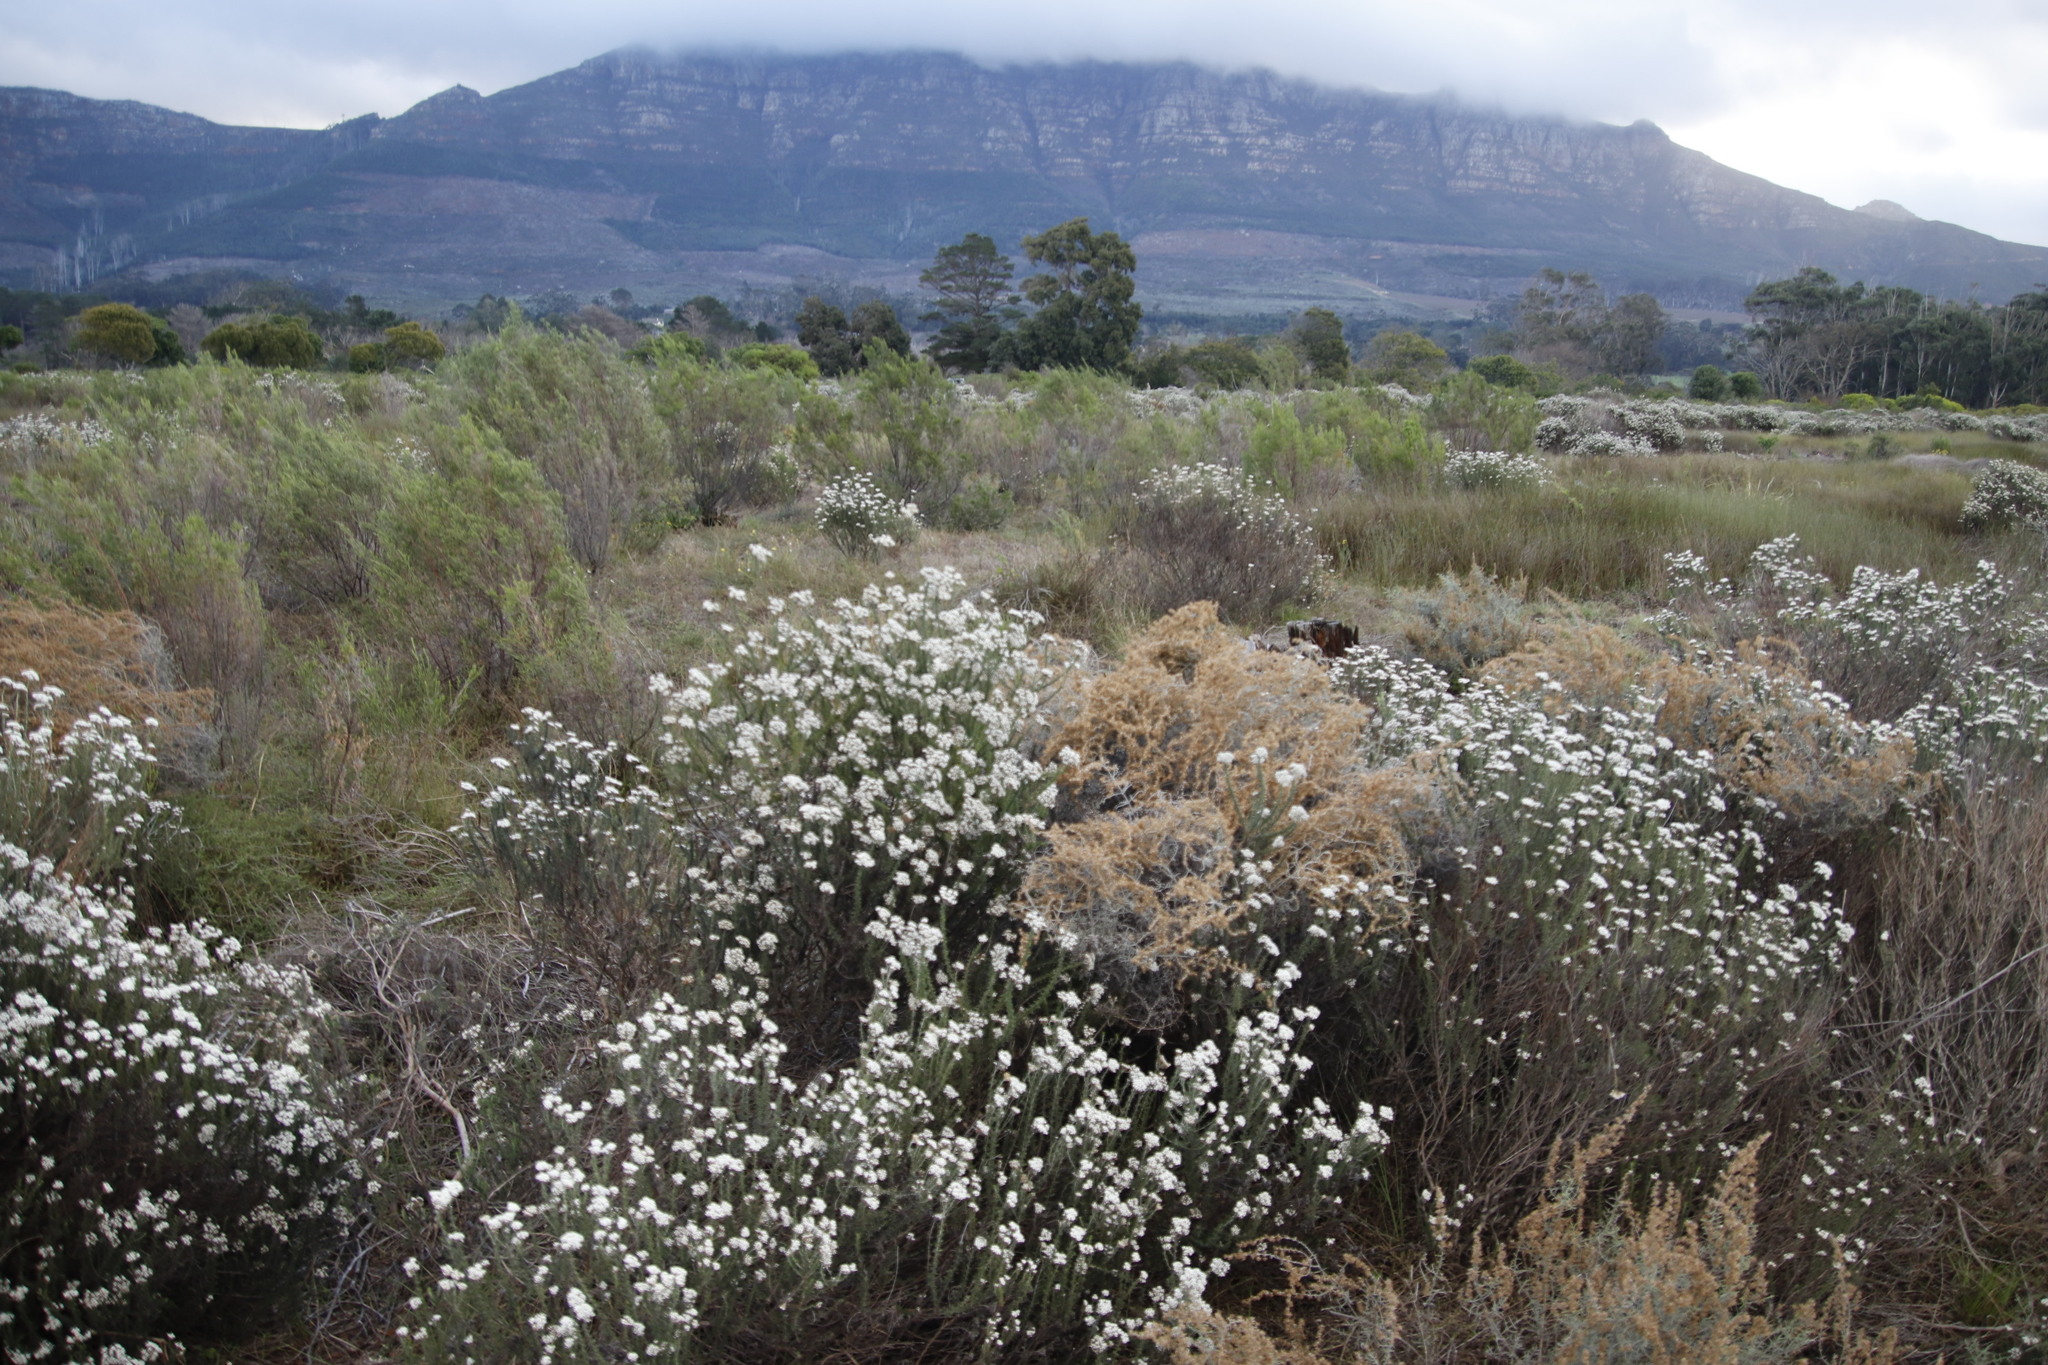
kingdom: Plantae
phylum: Tracheophyta
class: Magnoliopsida
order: Asterales
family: Asteraceae
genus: Seriphium
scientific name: Seriphium plumosum
